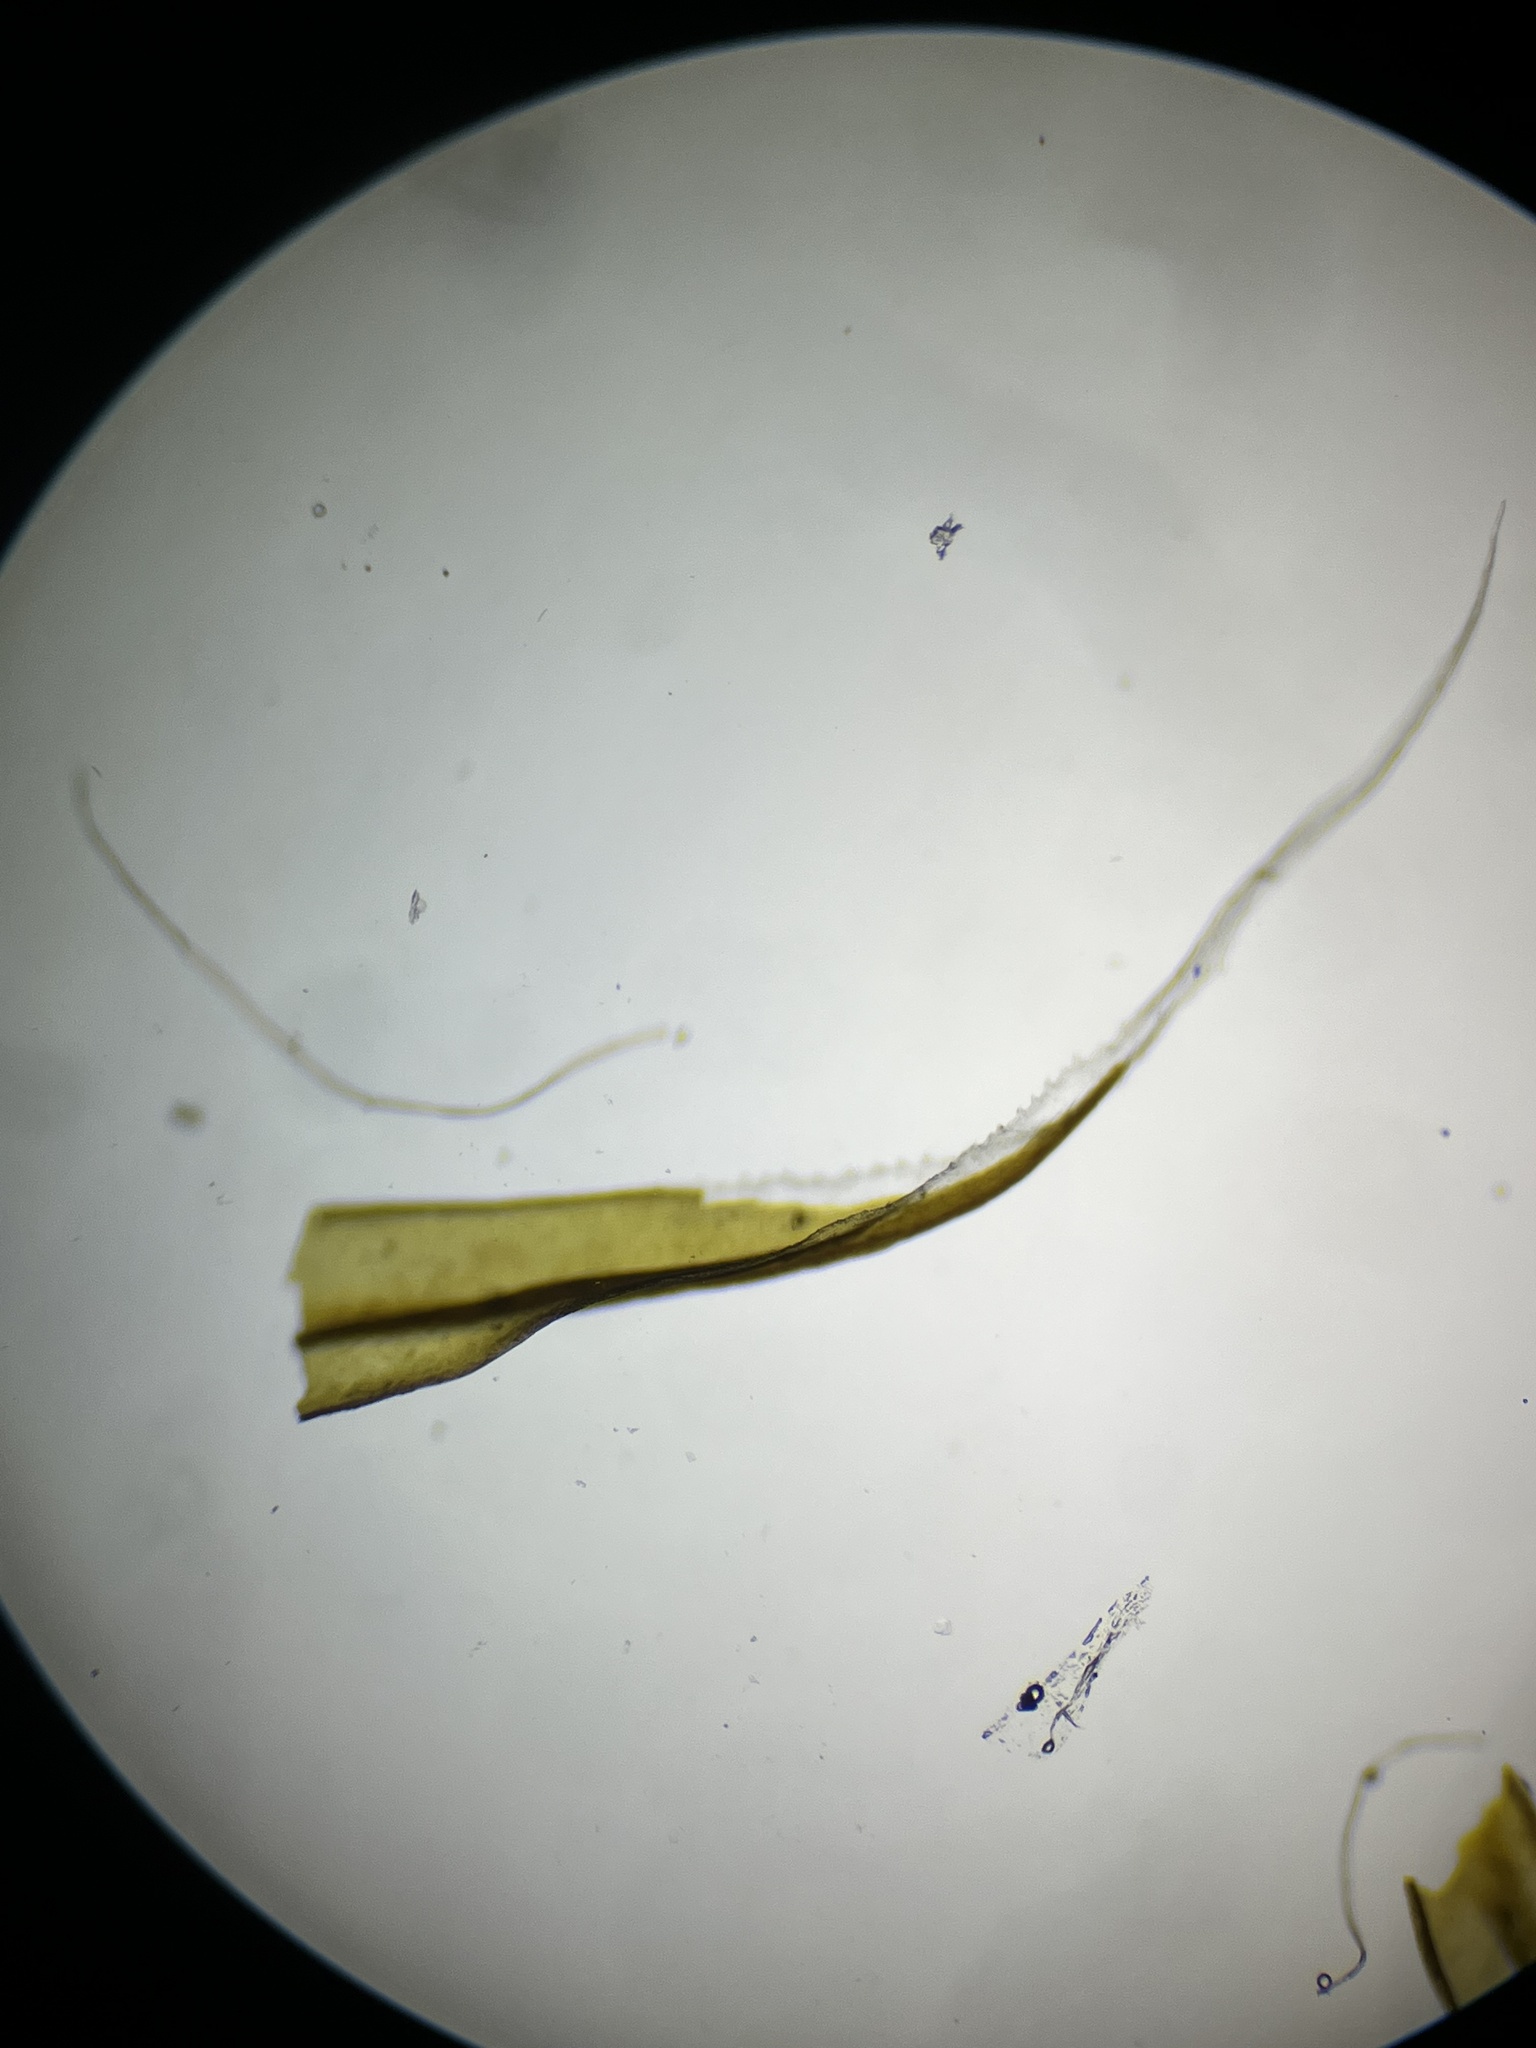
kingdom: Plantae
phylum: Bryophyta
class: Bryopsida
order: Grimmiales
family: Grimmiaceae
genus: Racomitrium
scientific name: Racomitrium lanuginosum
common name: Hoary rock moss
